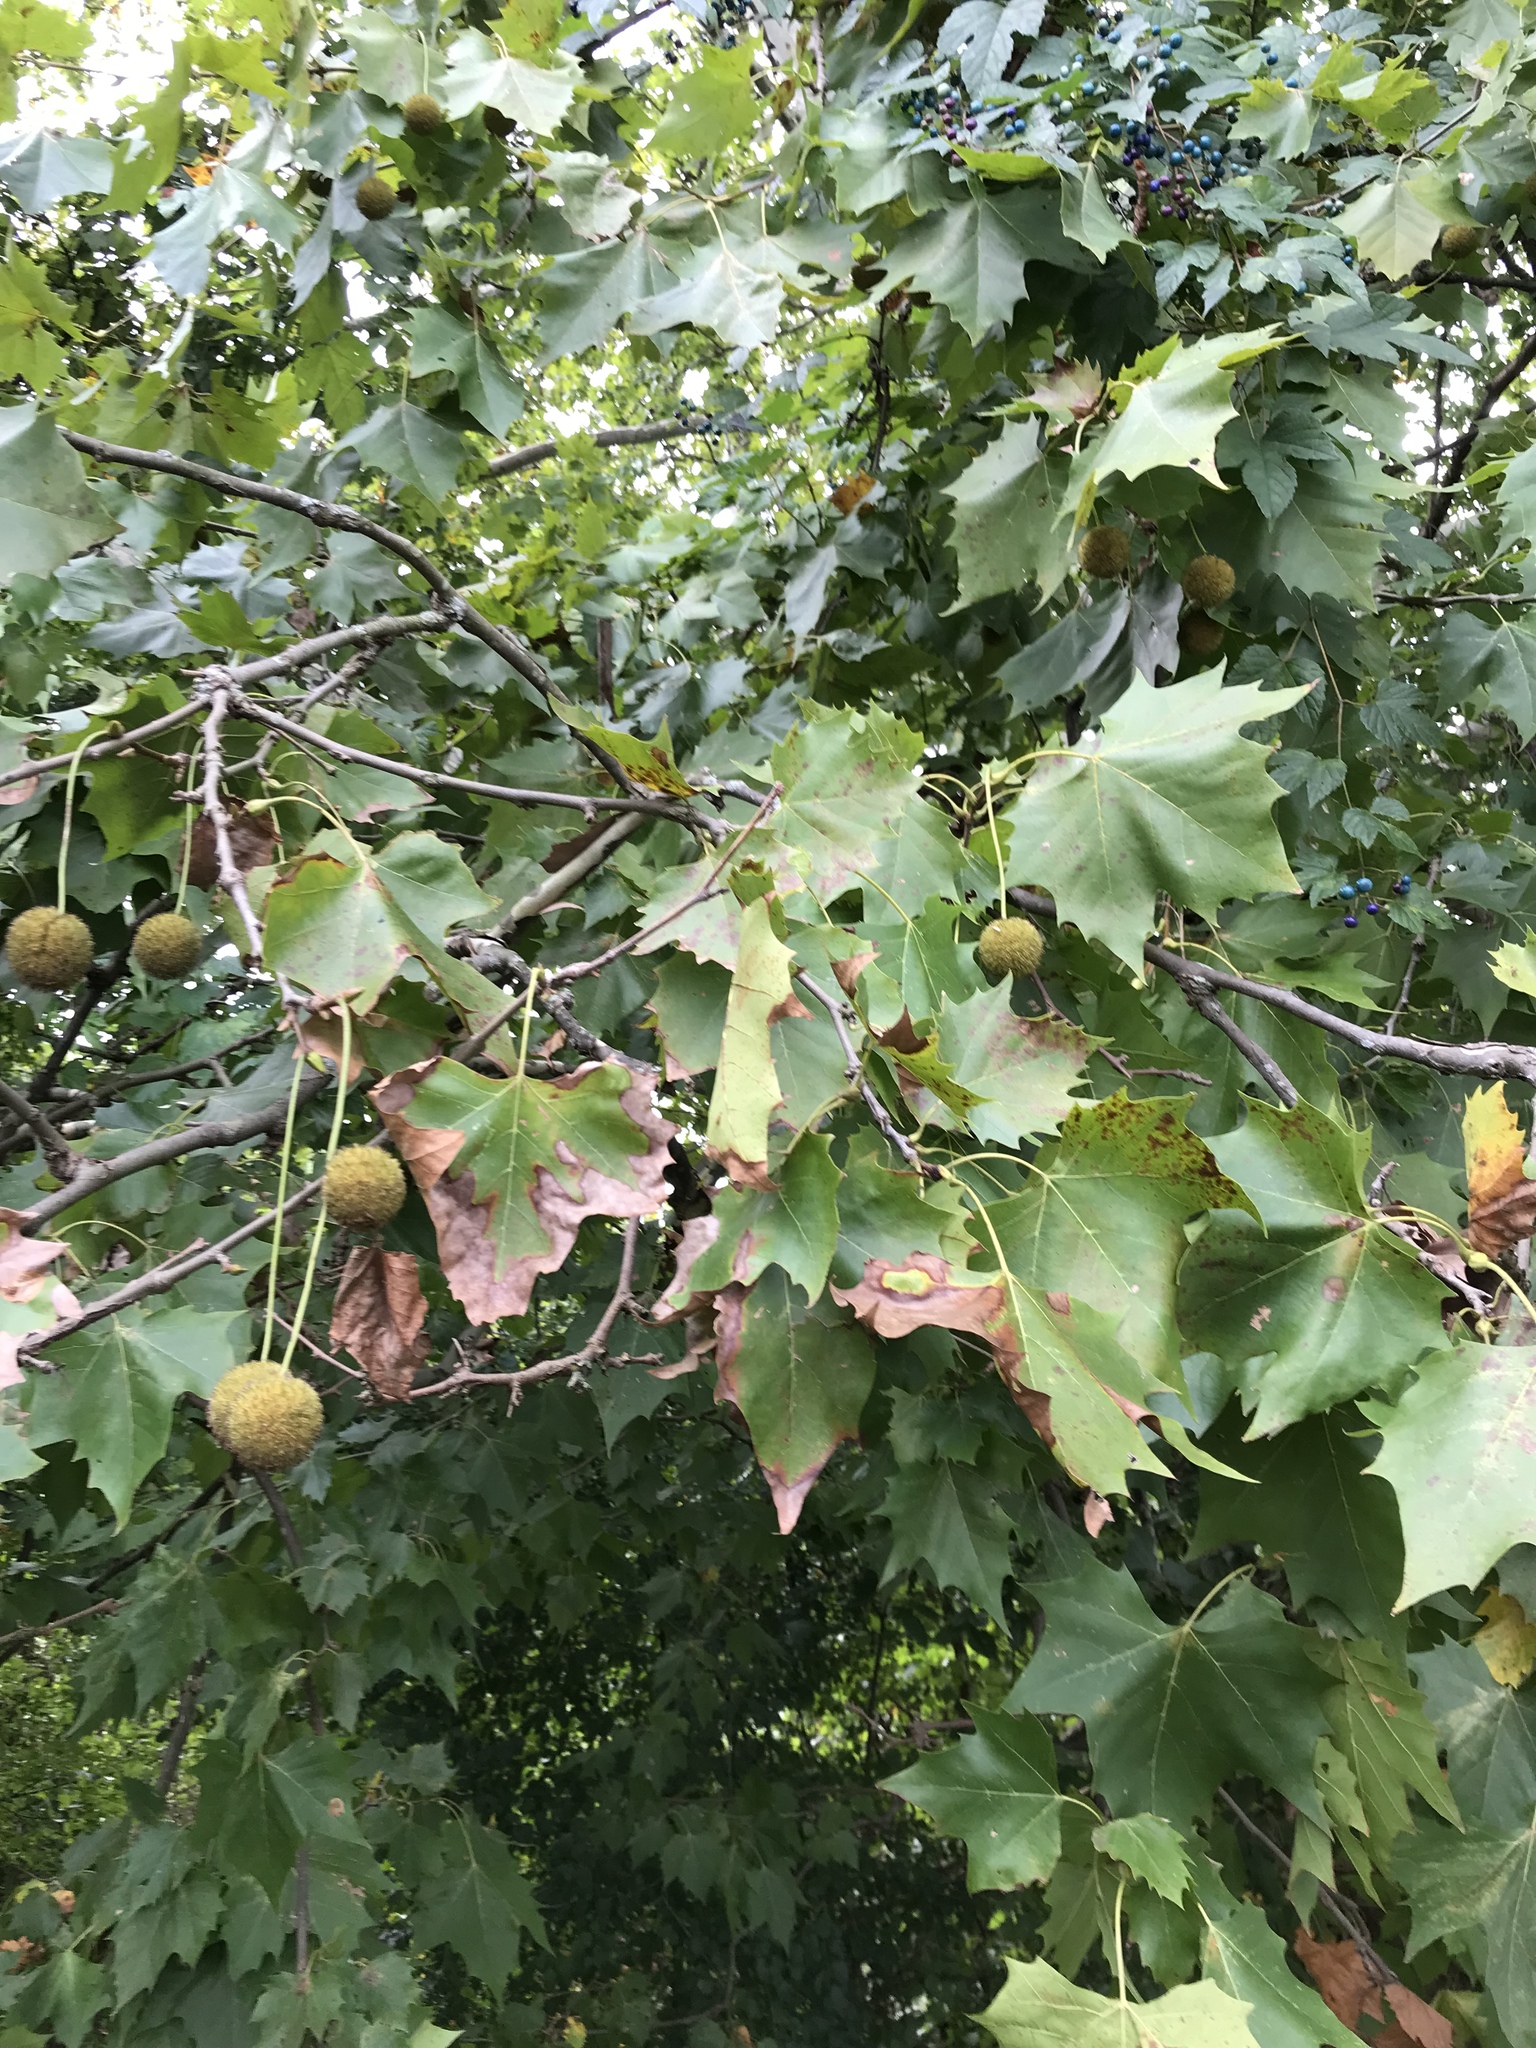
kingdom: Plantae
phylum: Tracheophyta
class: Magnoliopsida
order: Proteales
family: Platanaceae
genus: Platanus
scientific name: Platanus occidentalis
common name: American sycamore
